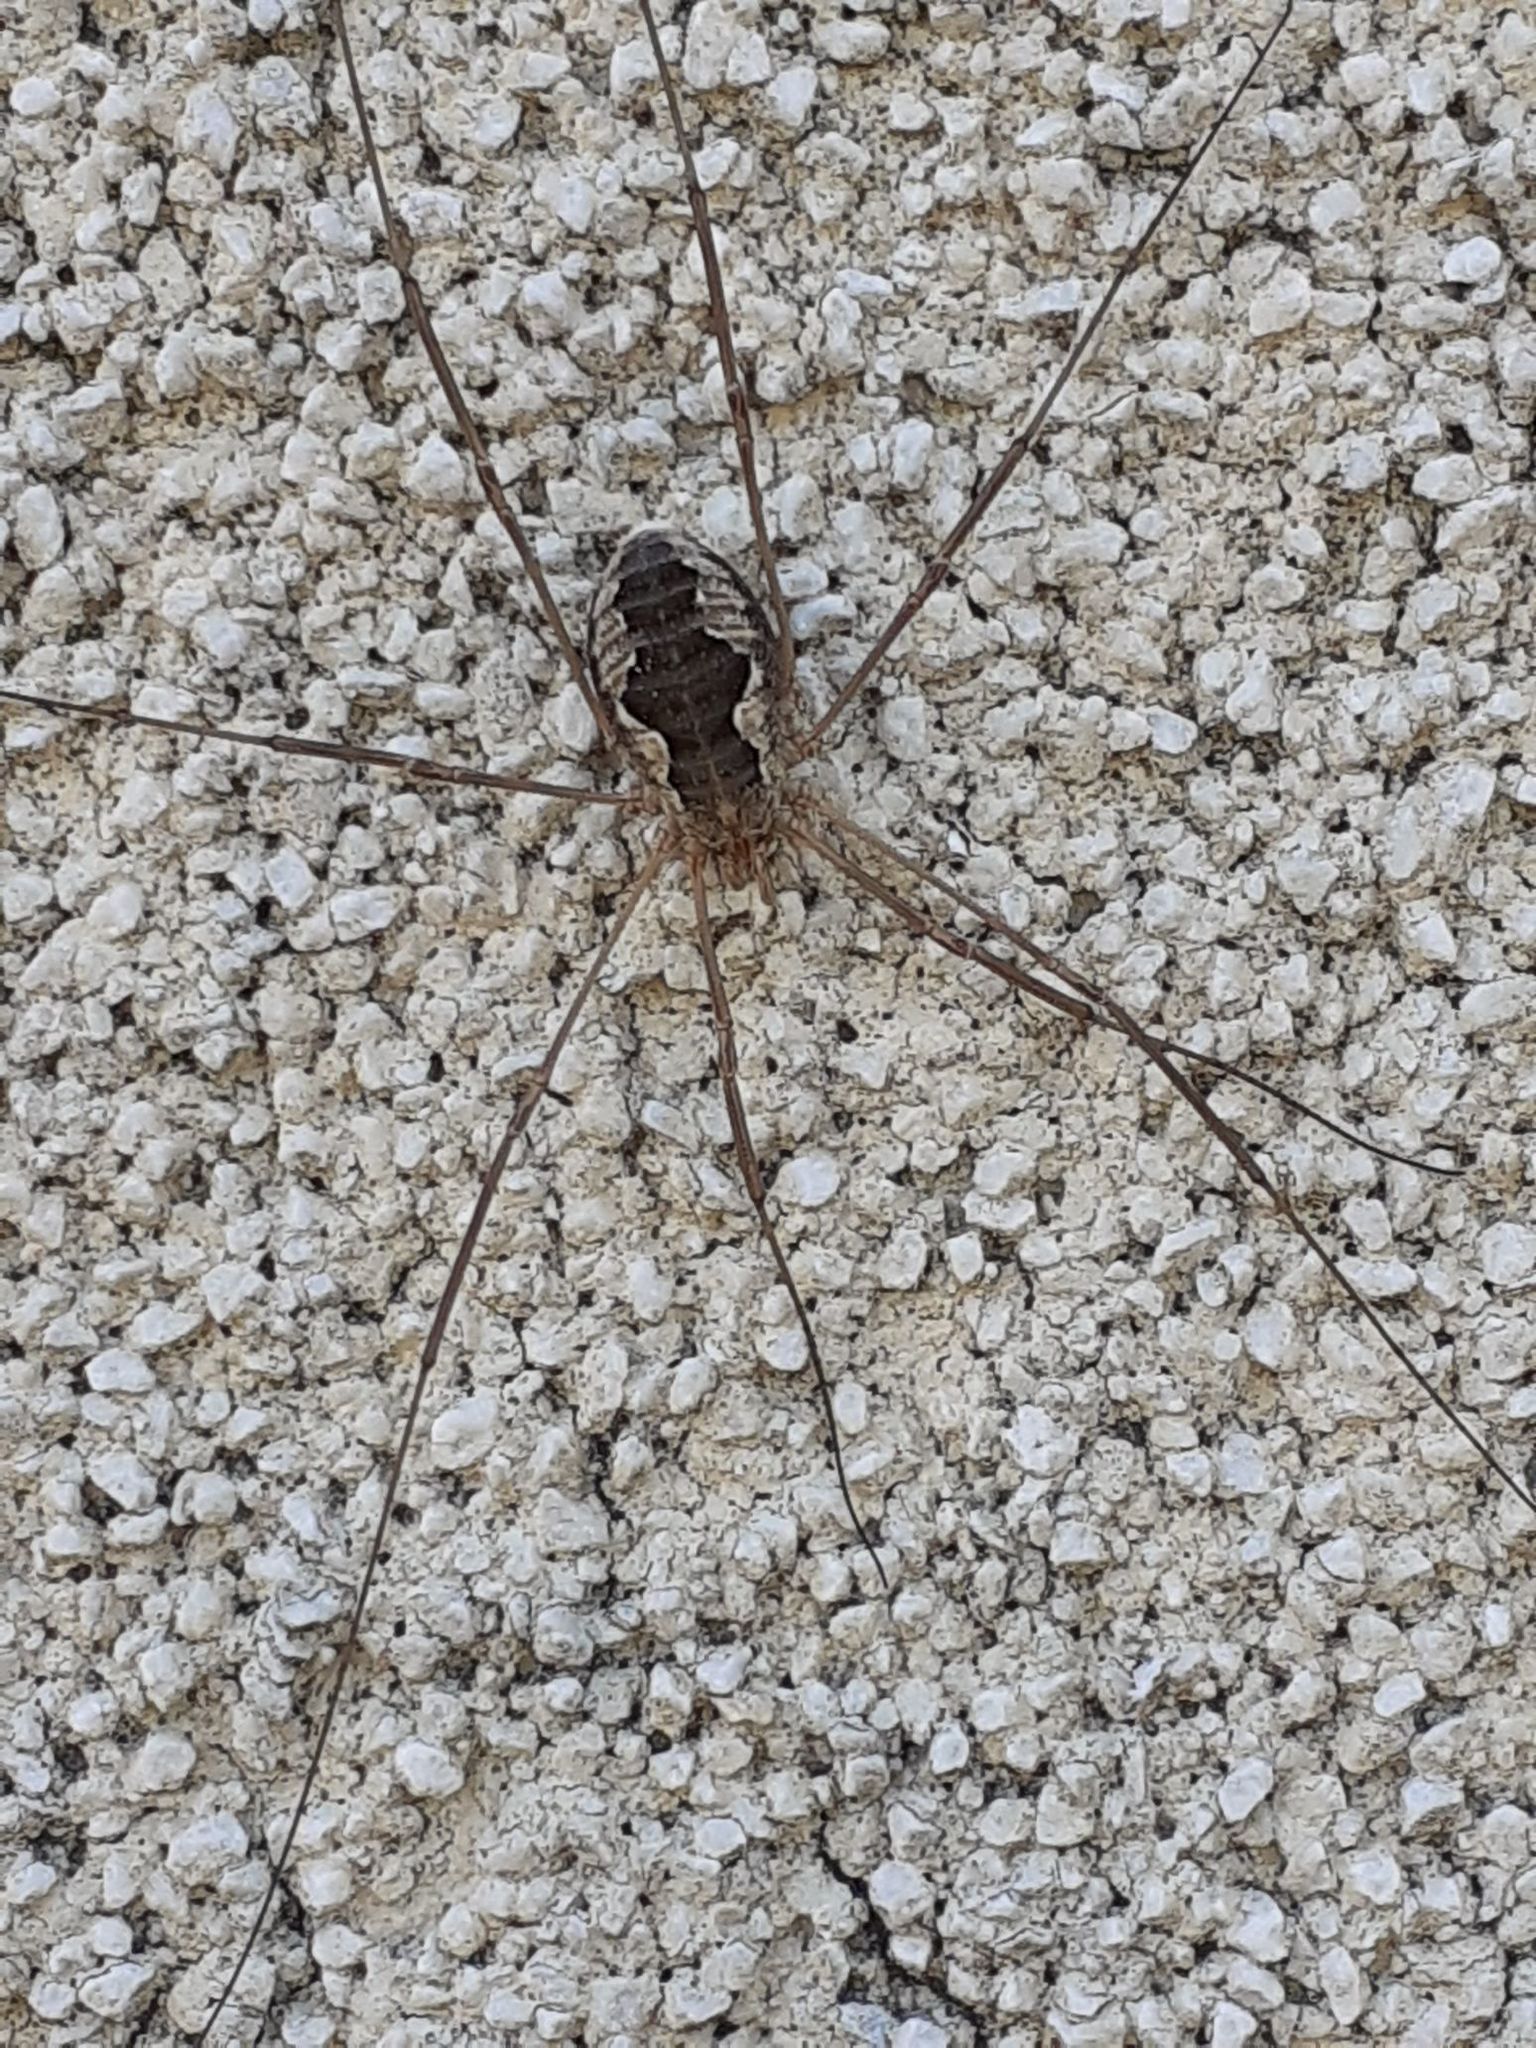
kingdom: Animalia
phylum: Arthropoda
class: Arachnida
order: Opiliones
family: Phalangiidae
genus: Phalangium
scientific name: Phalangium opilio
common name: Daddy longleg
